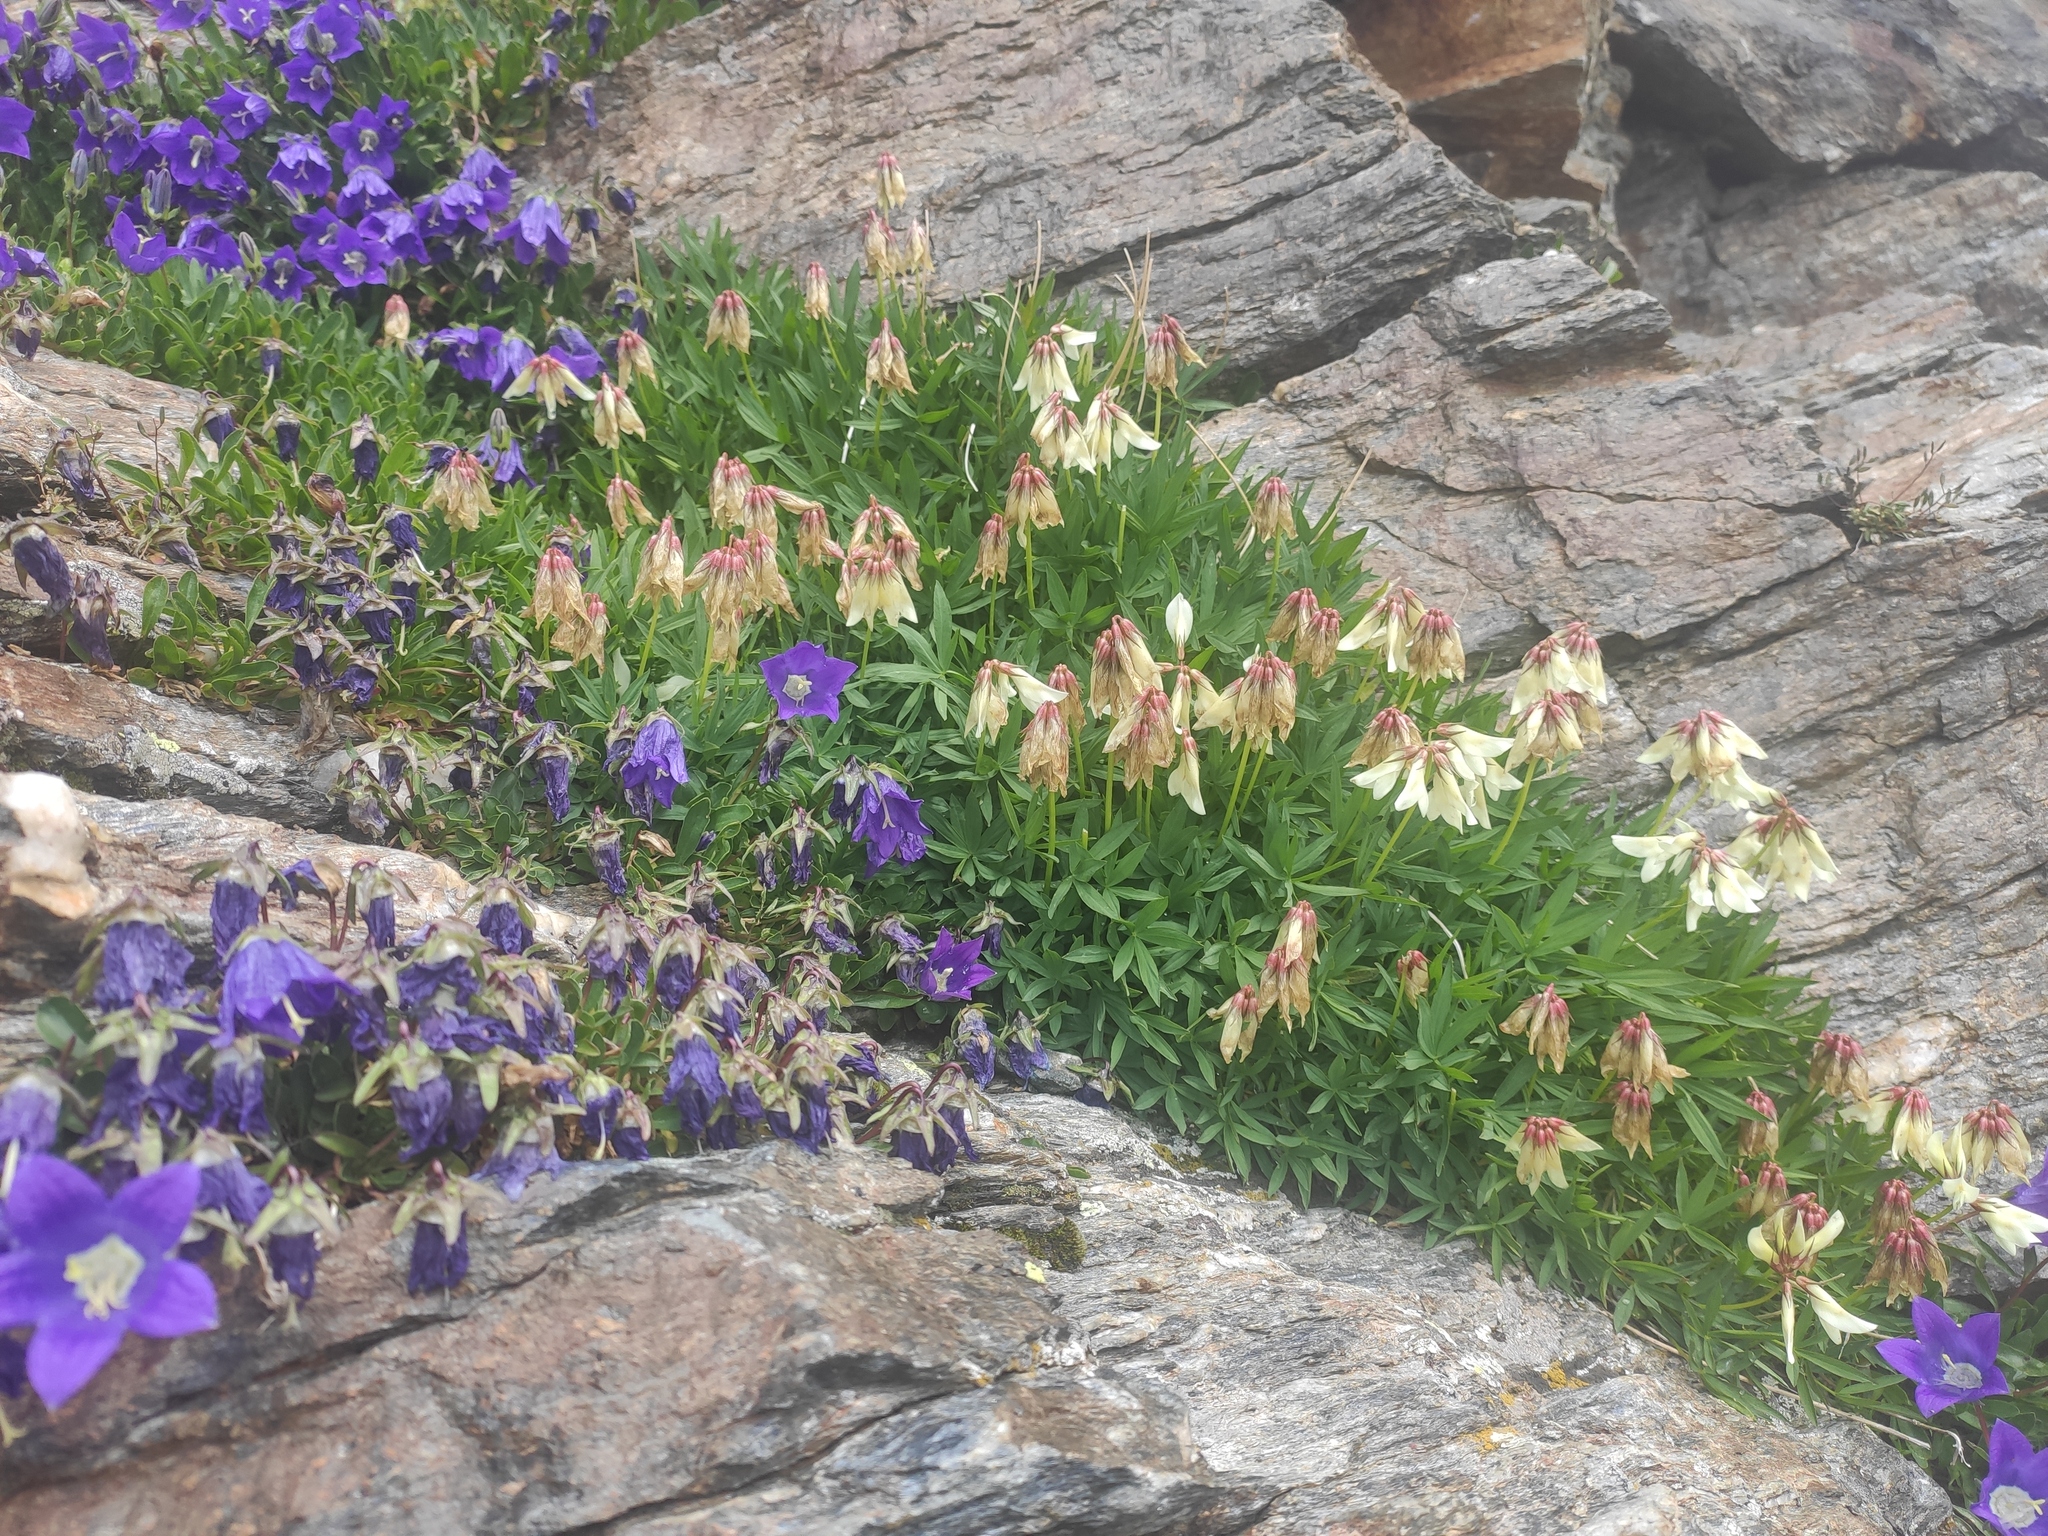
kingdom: Plantae
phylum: Tracheophyta
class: Magnoliopsida
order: Fabales
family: Fabaceae
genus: Trifolium
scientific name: Trifolium polyphyllum
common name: Many-leaf clover
